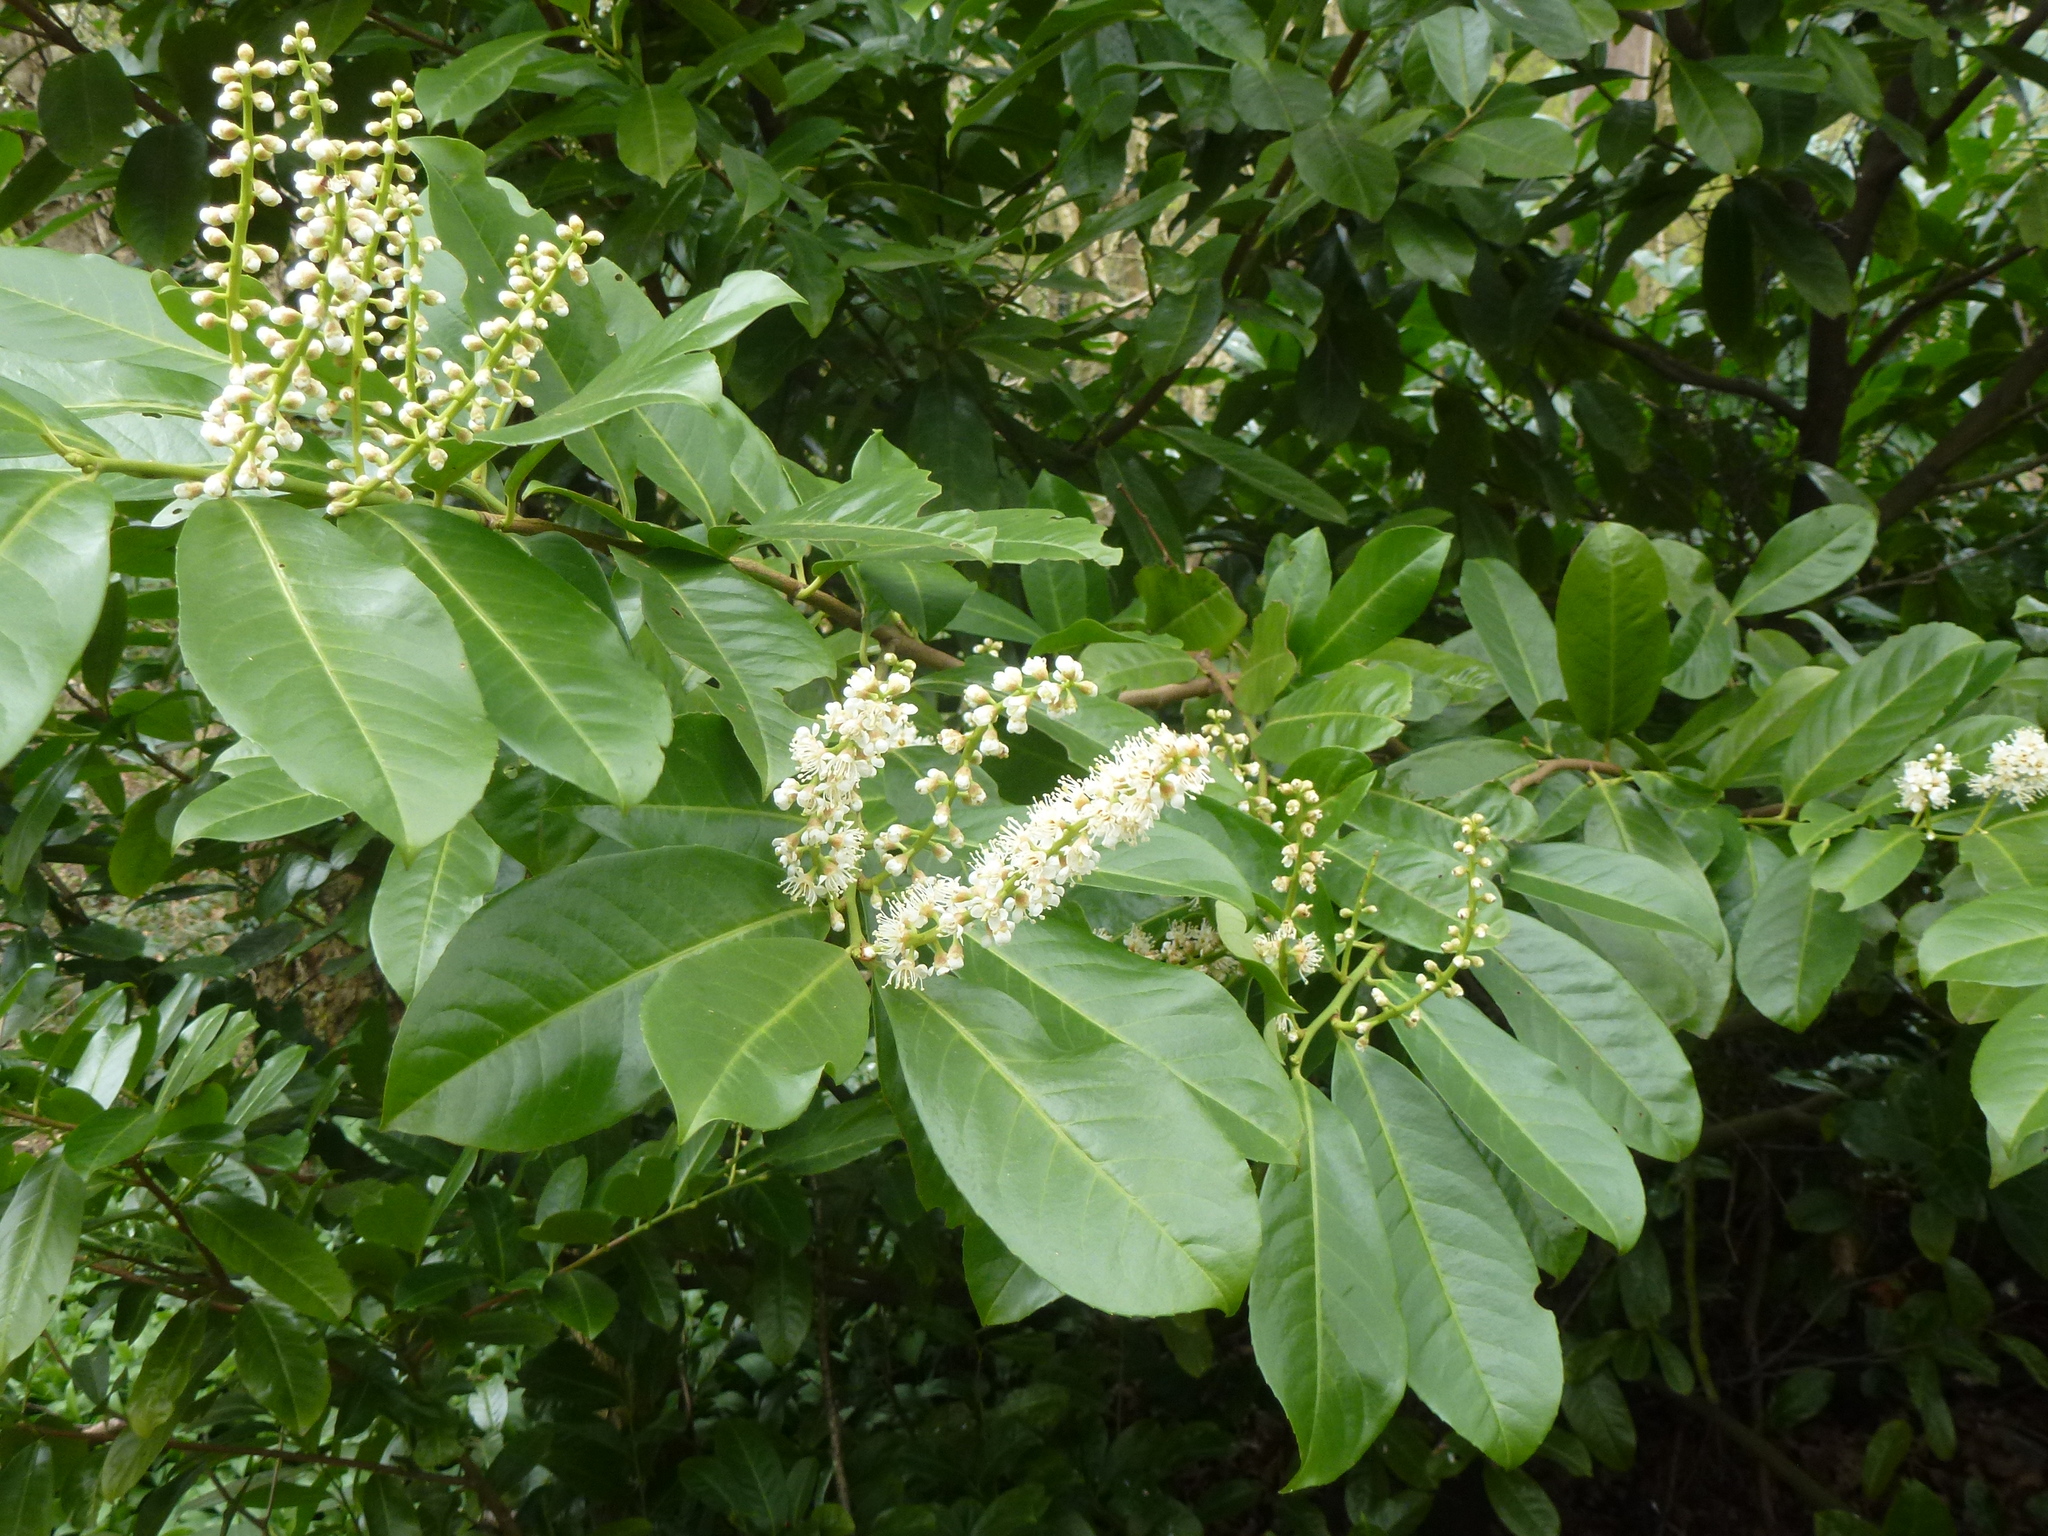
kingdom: Plantae
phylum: Tracheophyta
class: Magnoliopsida
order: Rosales
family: Rosaceae
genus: Prunus
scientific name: Prunus laurocerasus
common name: Cherry laurel
